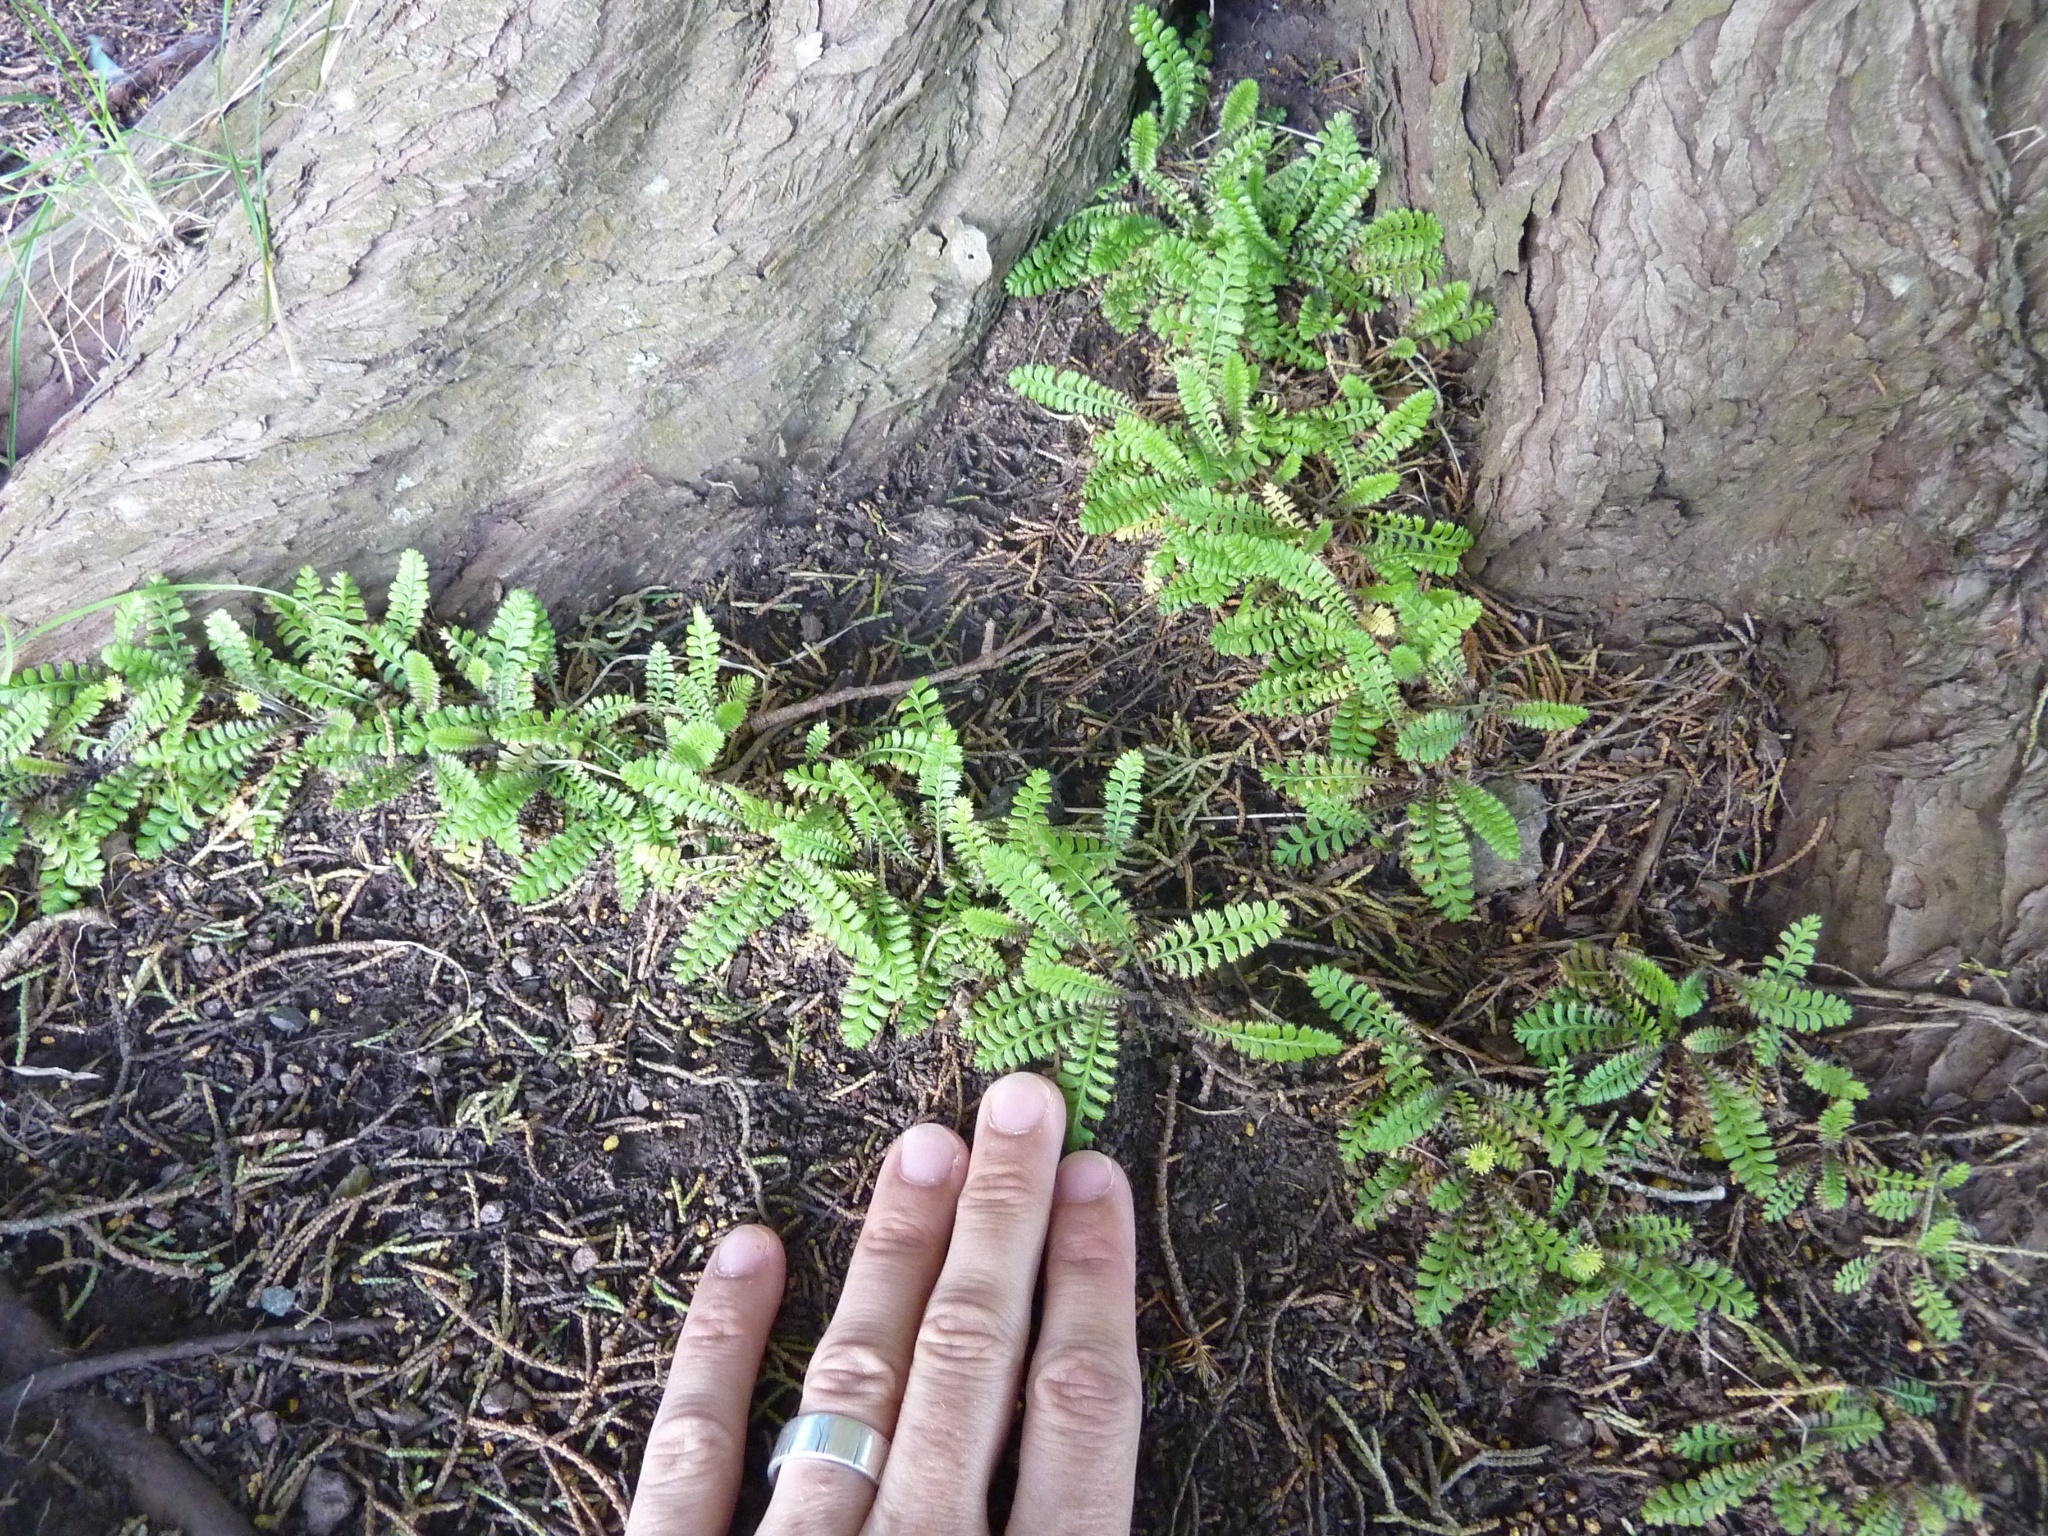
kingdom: Plantae
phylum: Tracheophyta
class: Magnoliopsida
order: Asterales
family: Asteraceae
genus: Leptinella
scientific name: Leptinella squalida
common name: New zealand brass-buttons
